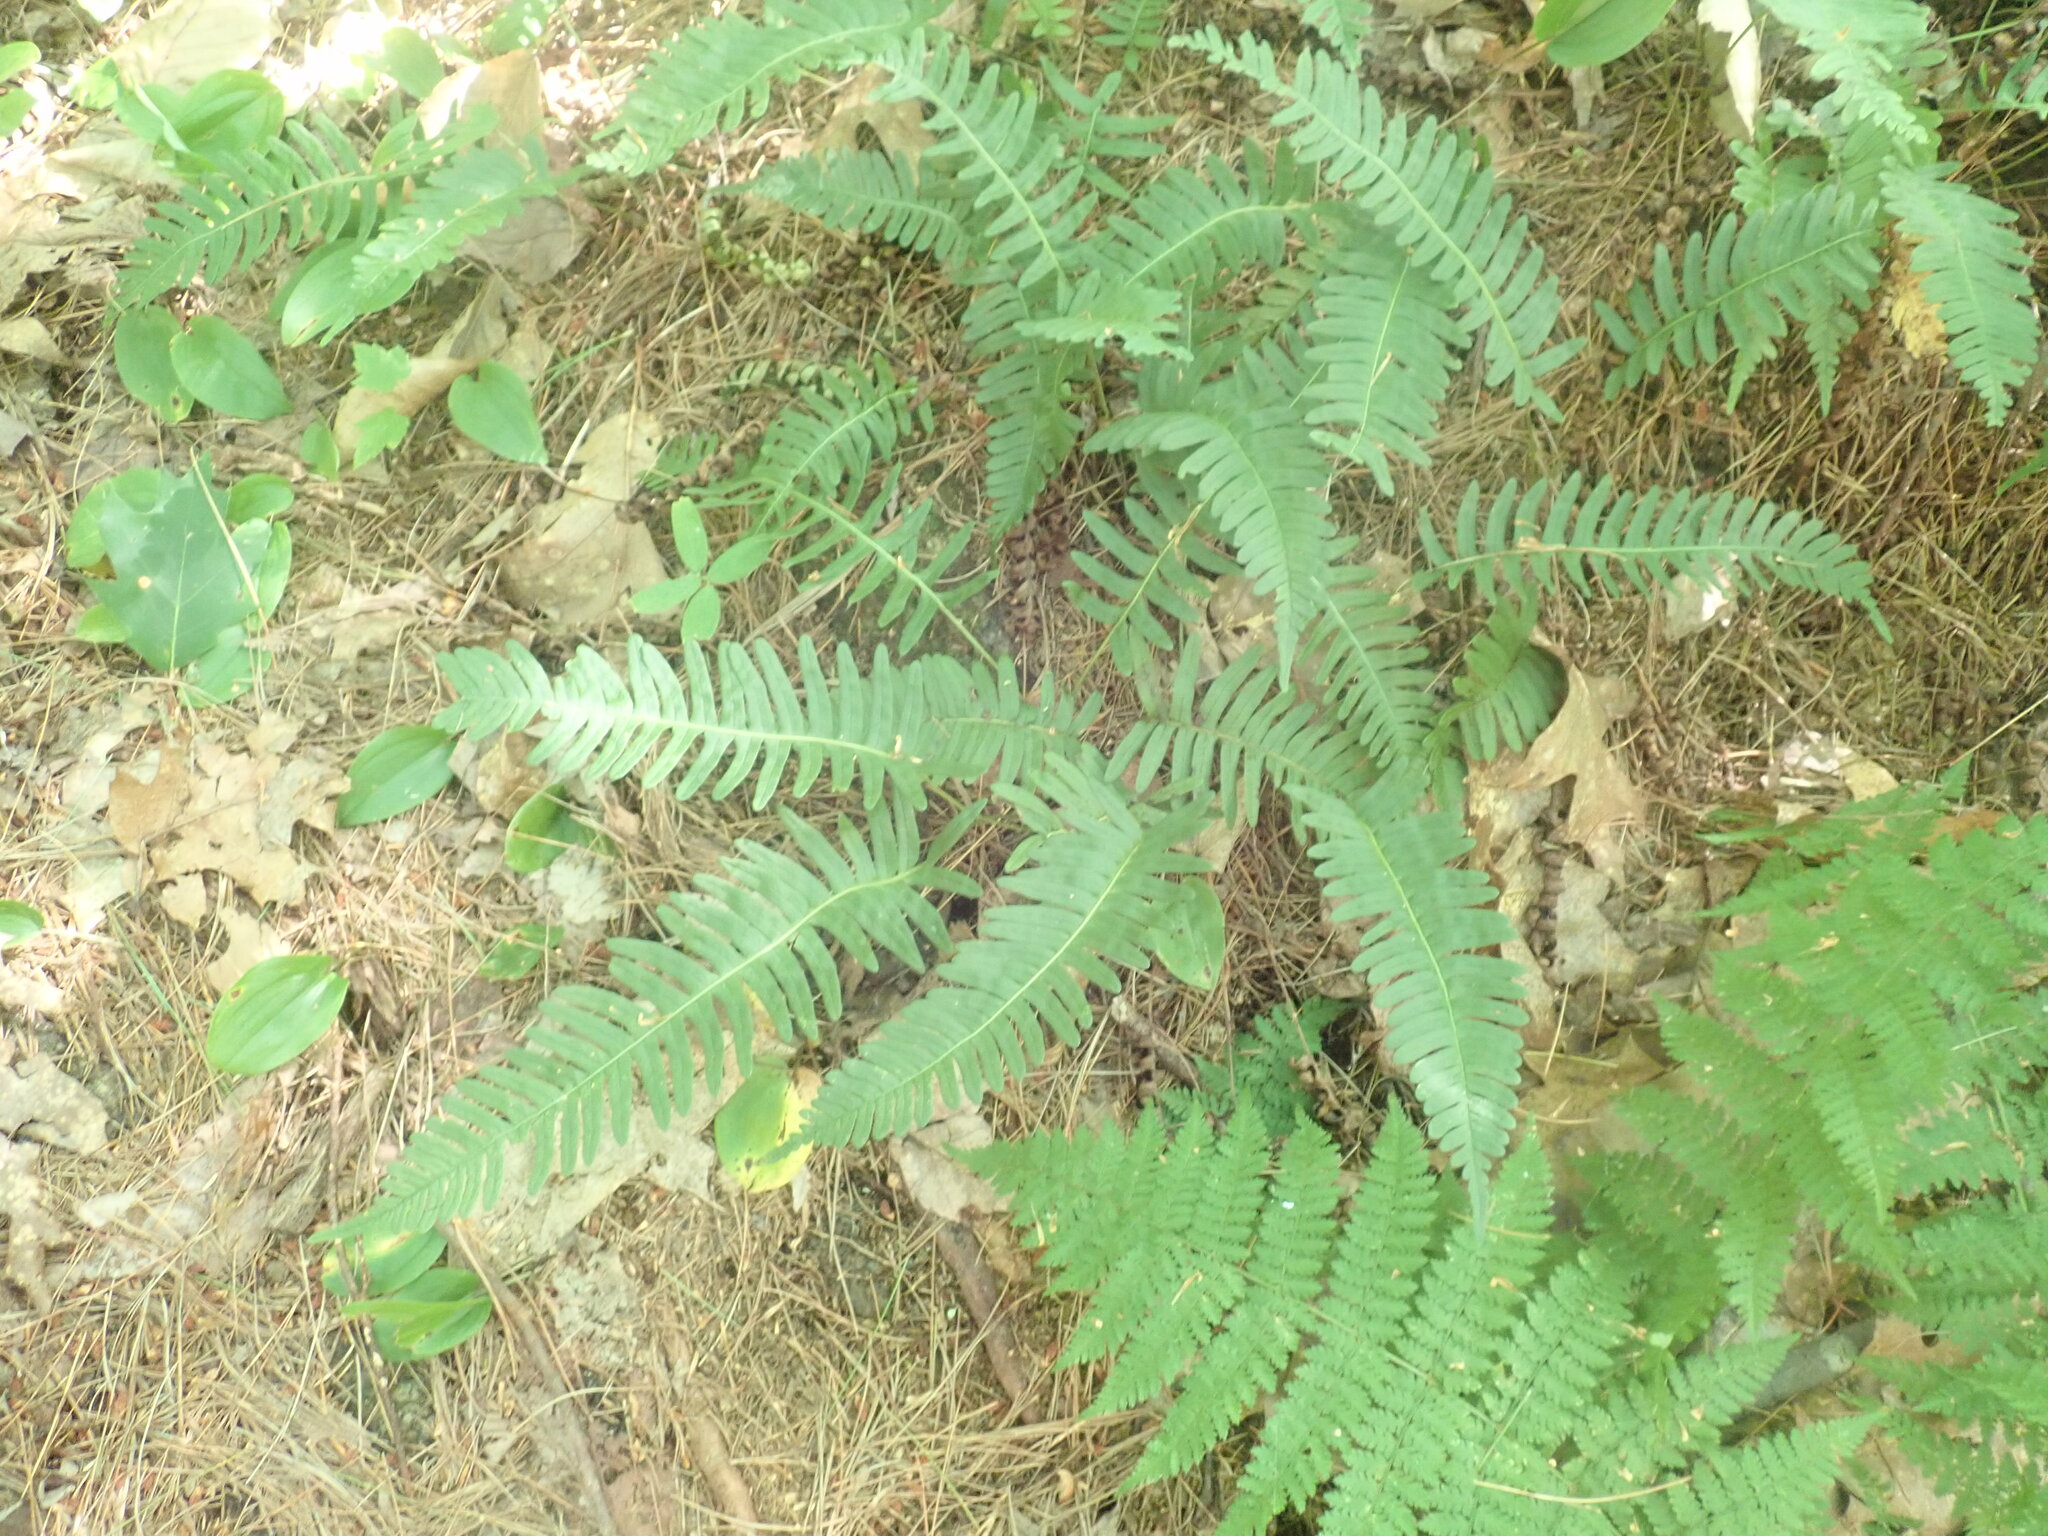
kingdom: Plantae
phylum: Tracheophyta
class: Polypodiopsida
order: Polypodiales
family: Polypodiaceae
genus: Polypodium
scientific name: Polypodium
